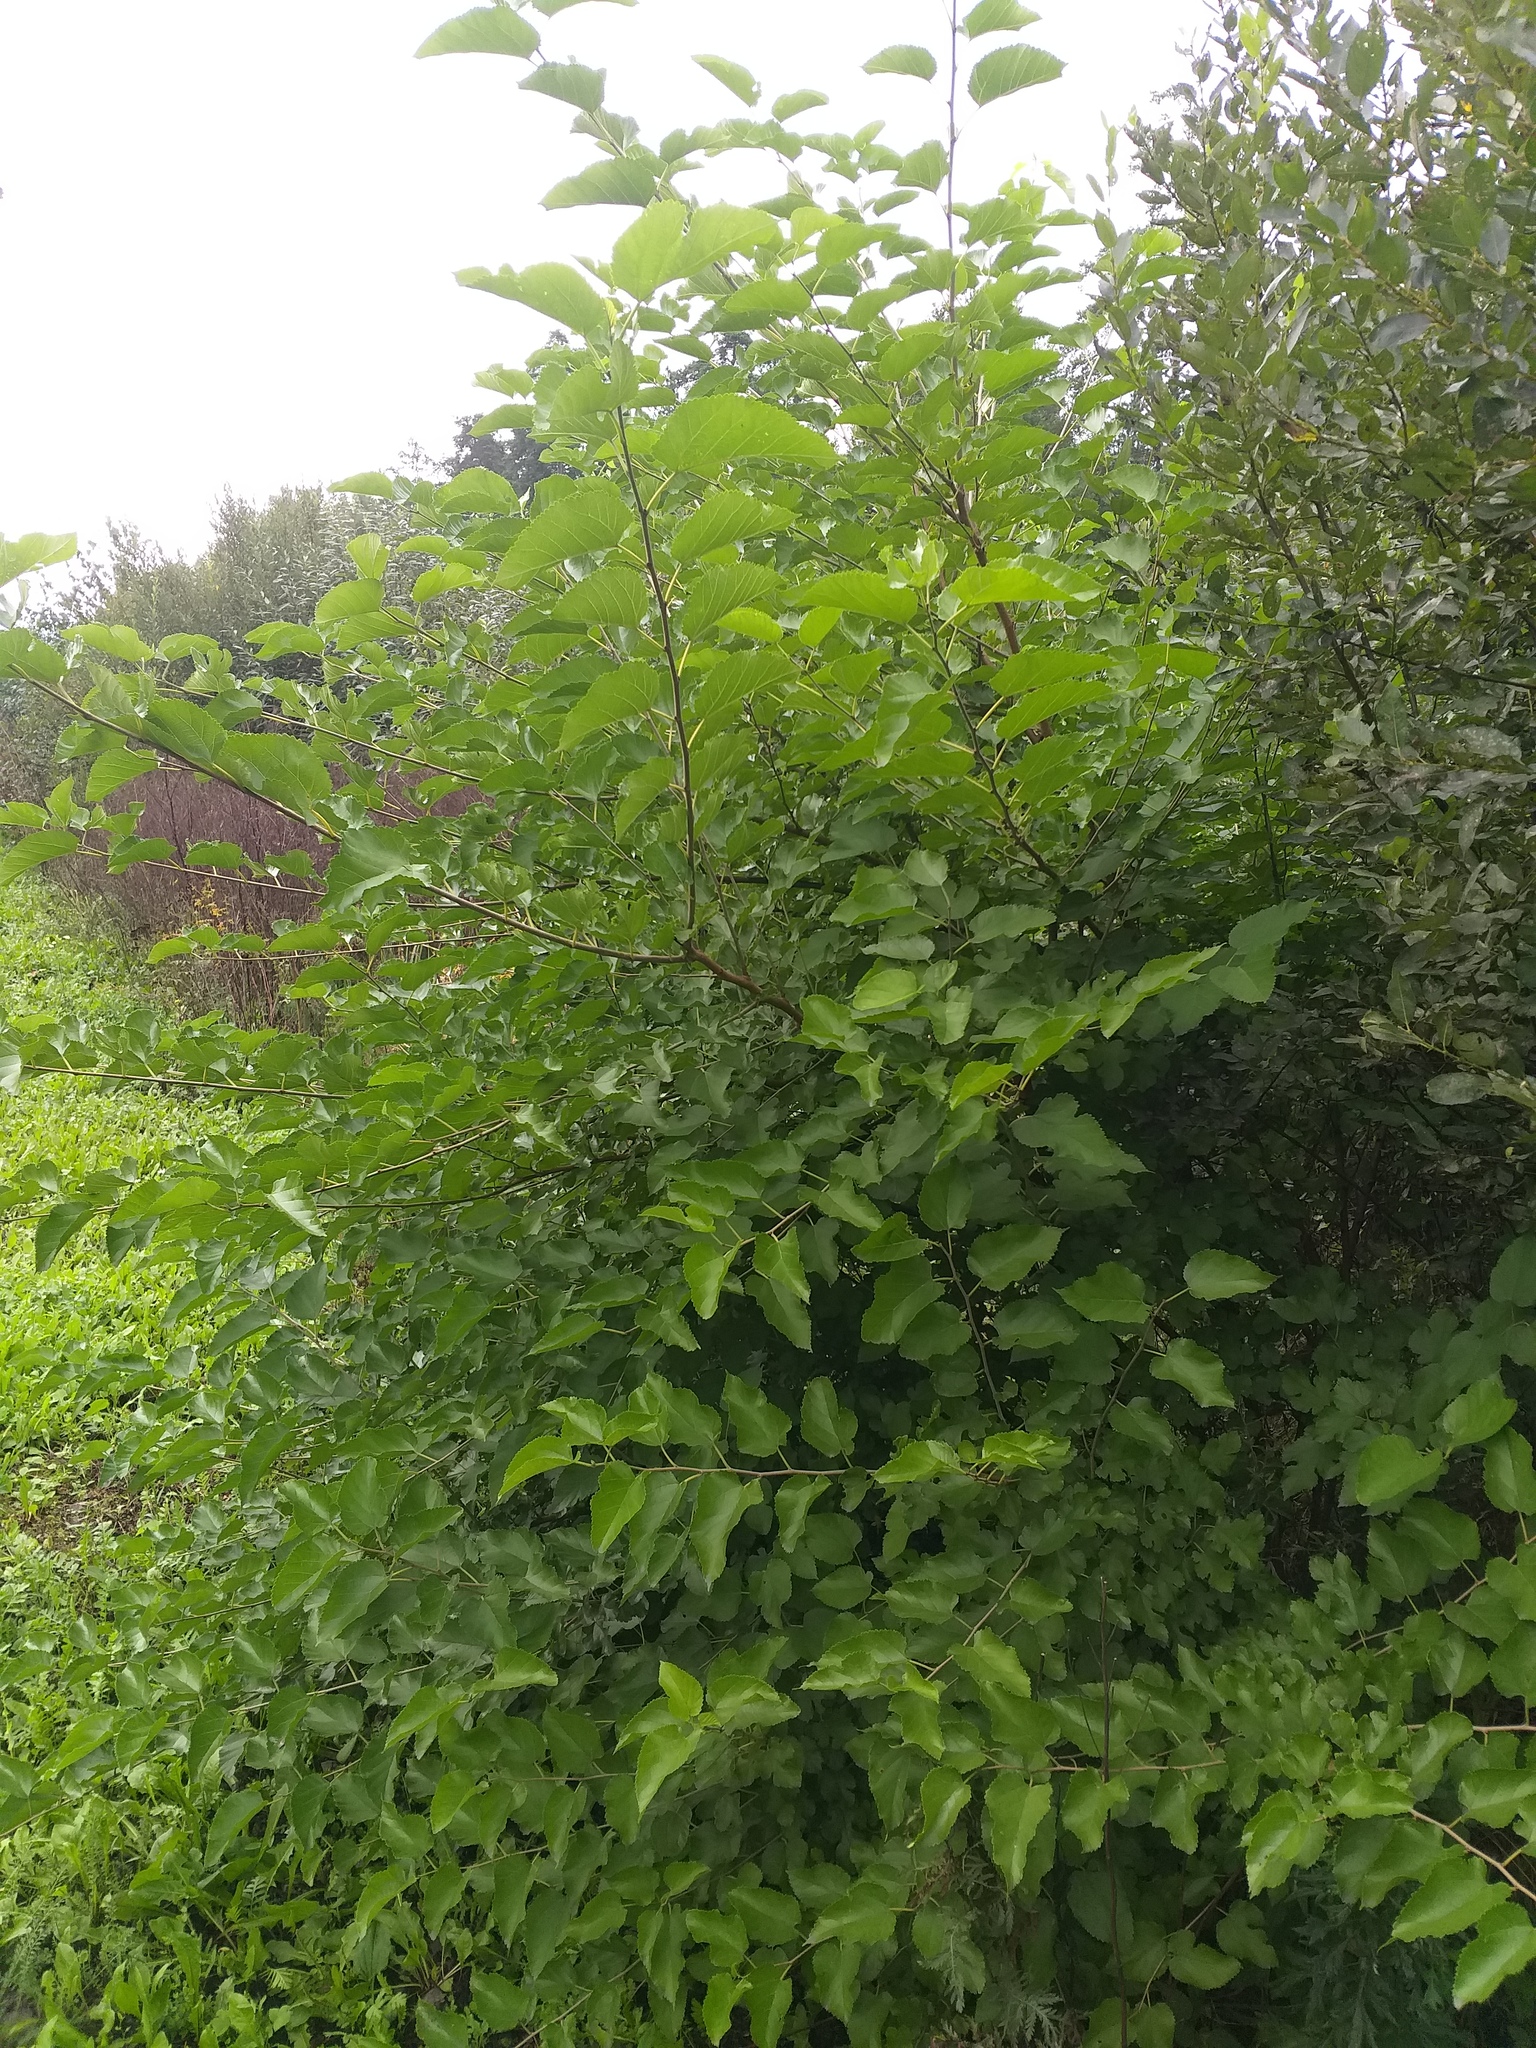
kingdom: Plantae
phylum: Tracheophyta
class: Magnoliopsida
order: Rosales
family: Moraceae
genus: Morus
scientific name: Morus alba
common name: White mulberry
